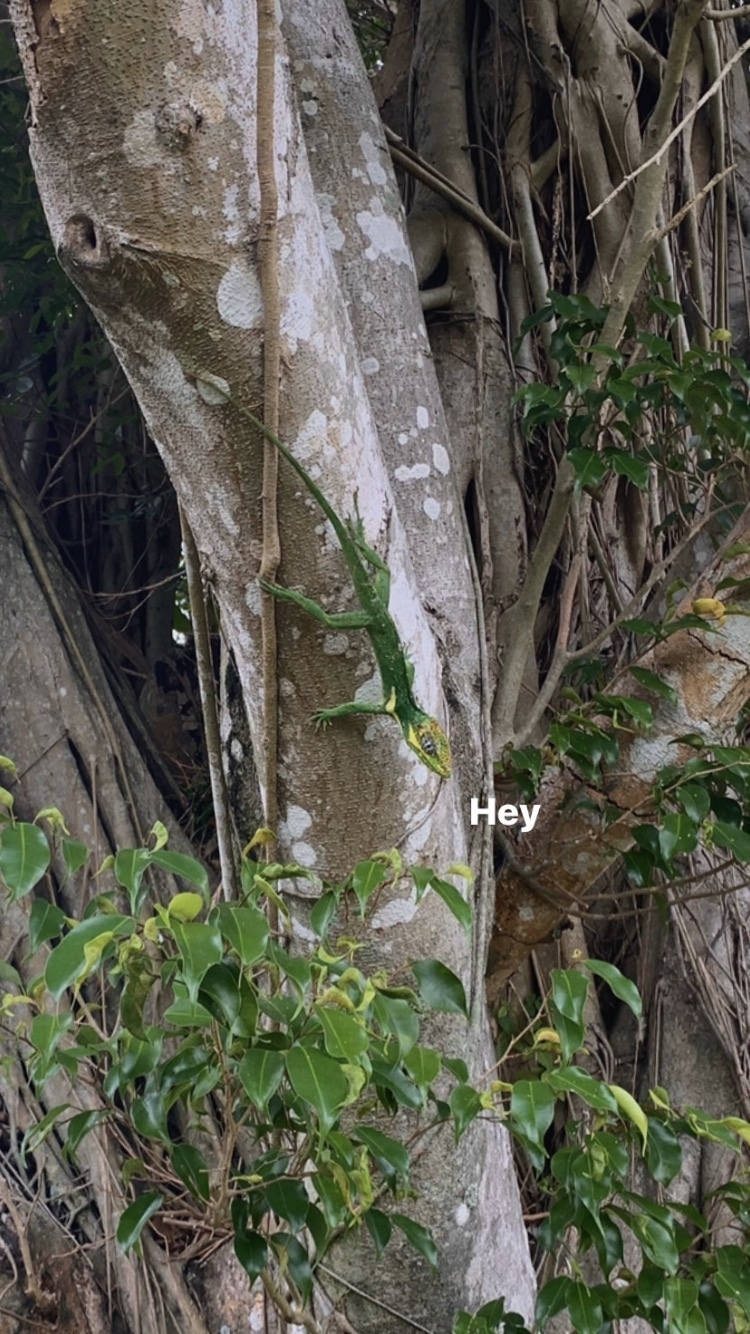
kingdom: Animalia
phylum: Chordata
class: Squamata
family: Dactyloidae
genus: Anolis
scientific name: Anolis equestris
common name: Knight anole
